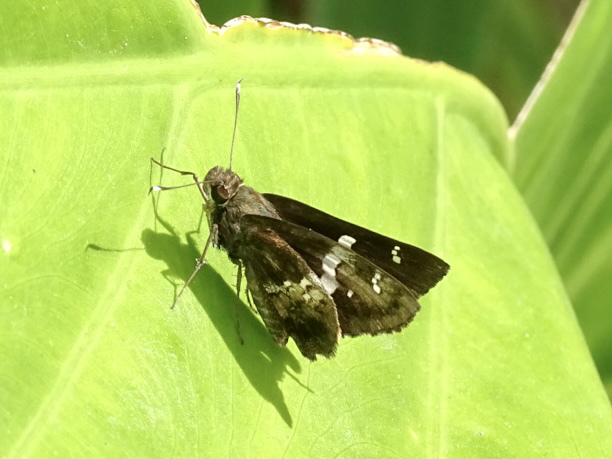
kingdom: Animalia
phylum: Arthropoda
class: Insecta
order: Lepidoptera
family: Hesperiidae
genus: Hyarotis
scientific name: Hyarotis adrastus
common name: Tree flitter
